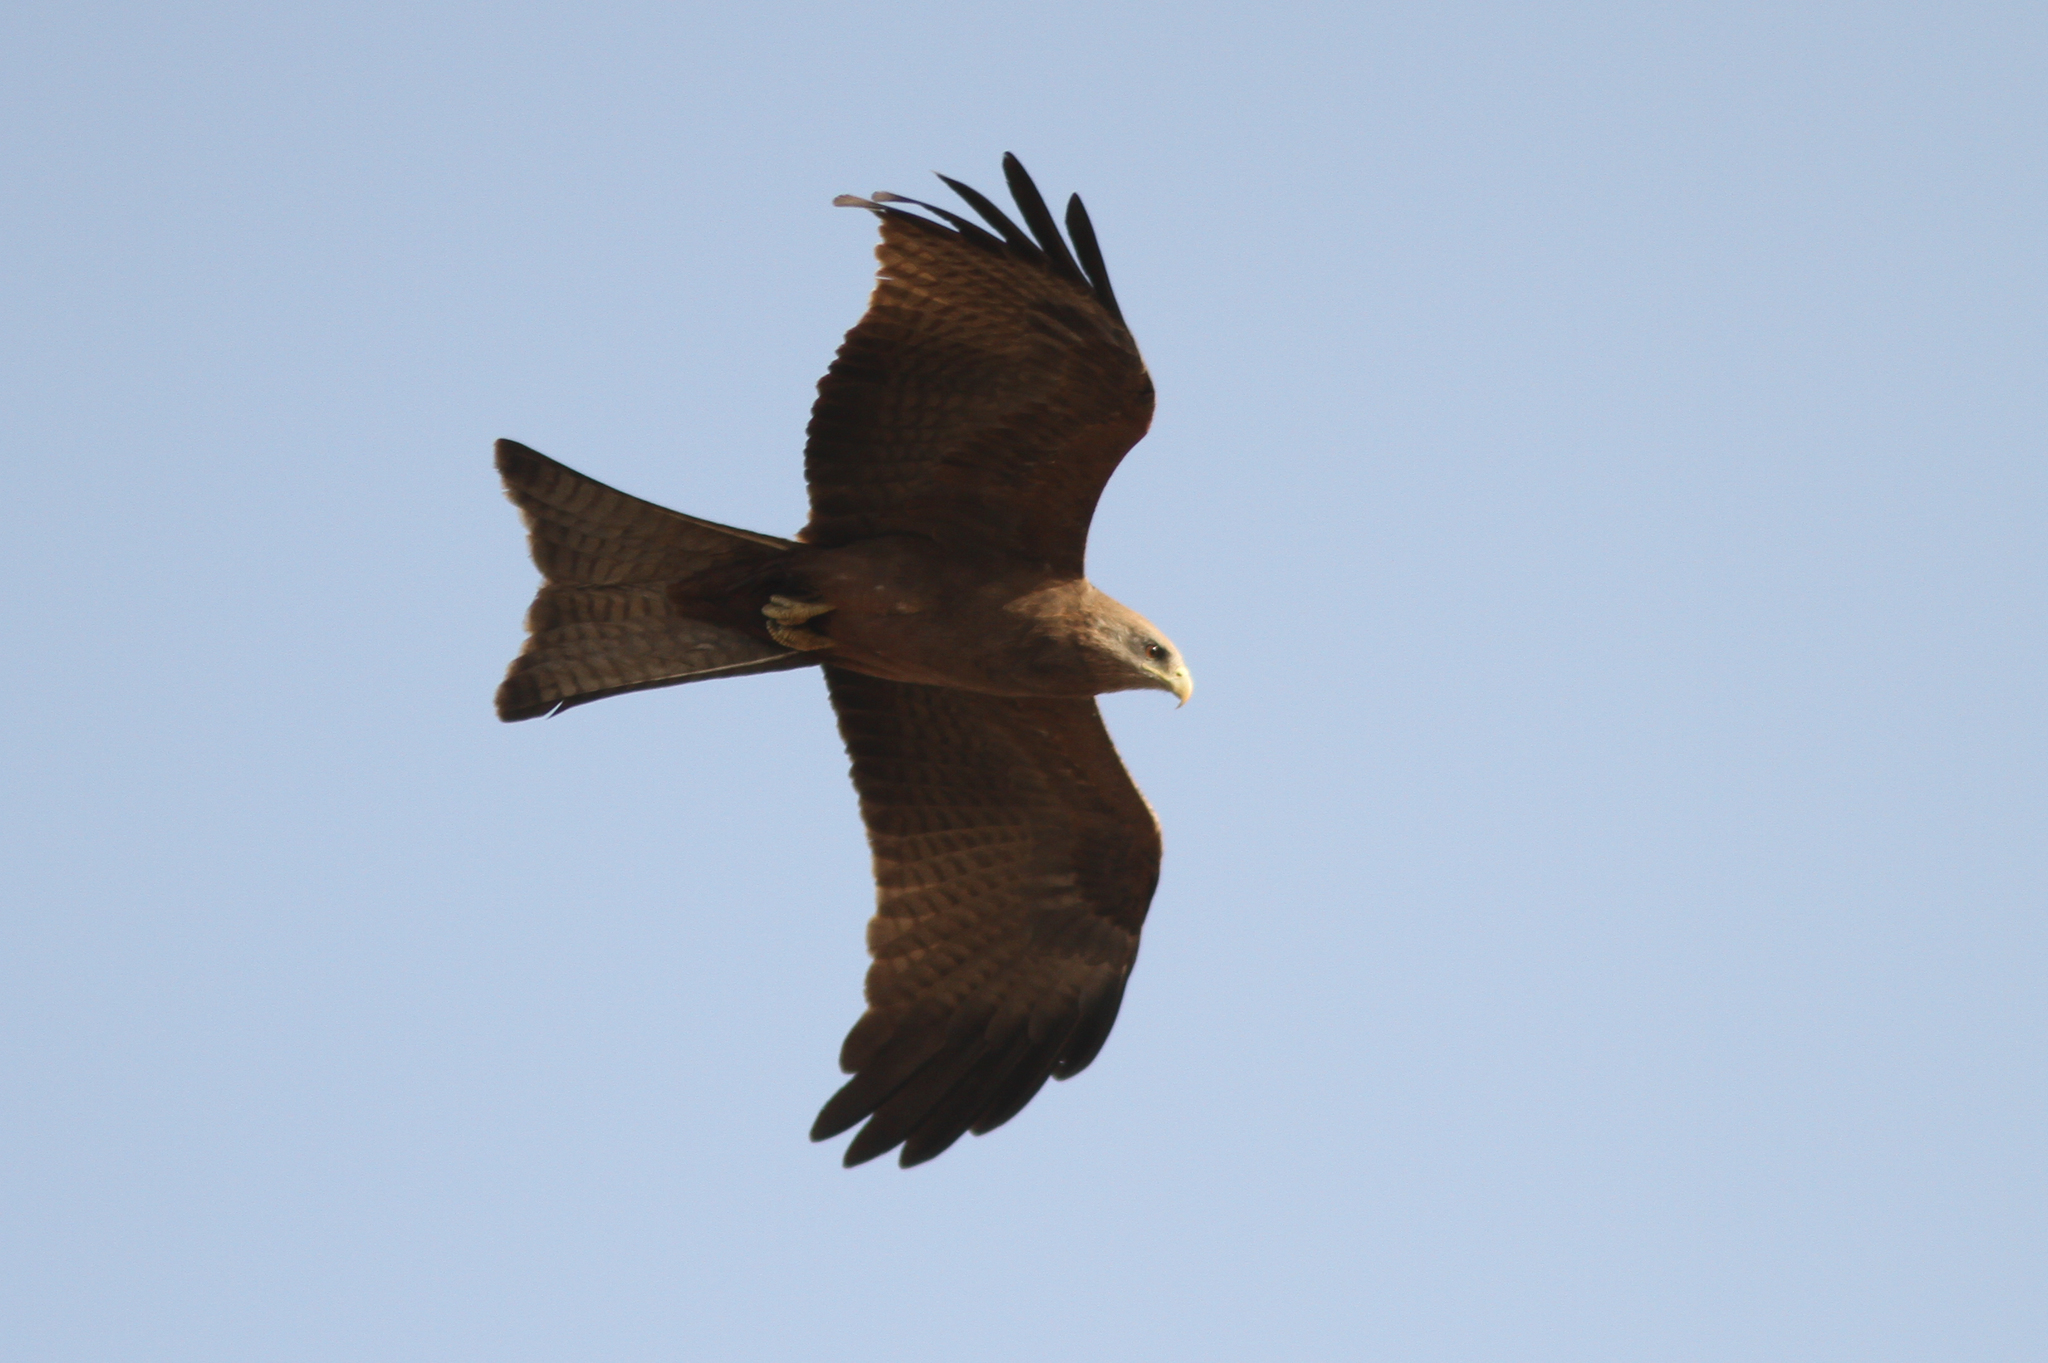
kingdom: Animalia
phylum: Chordata
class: Aves
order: Accipitriformes
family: Accipitridae
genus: Milvus
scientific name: Milvus migrans
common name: Black kite
